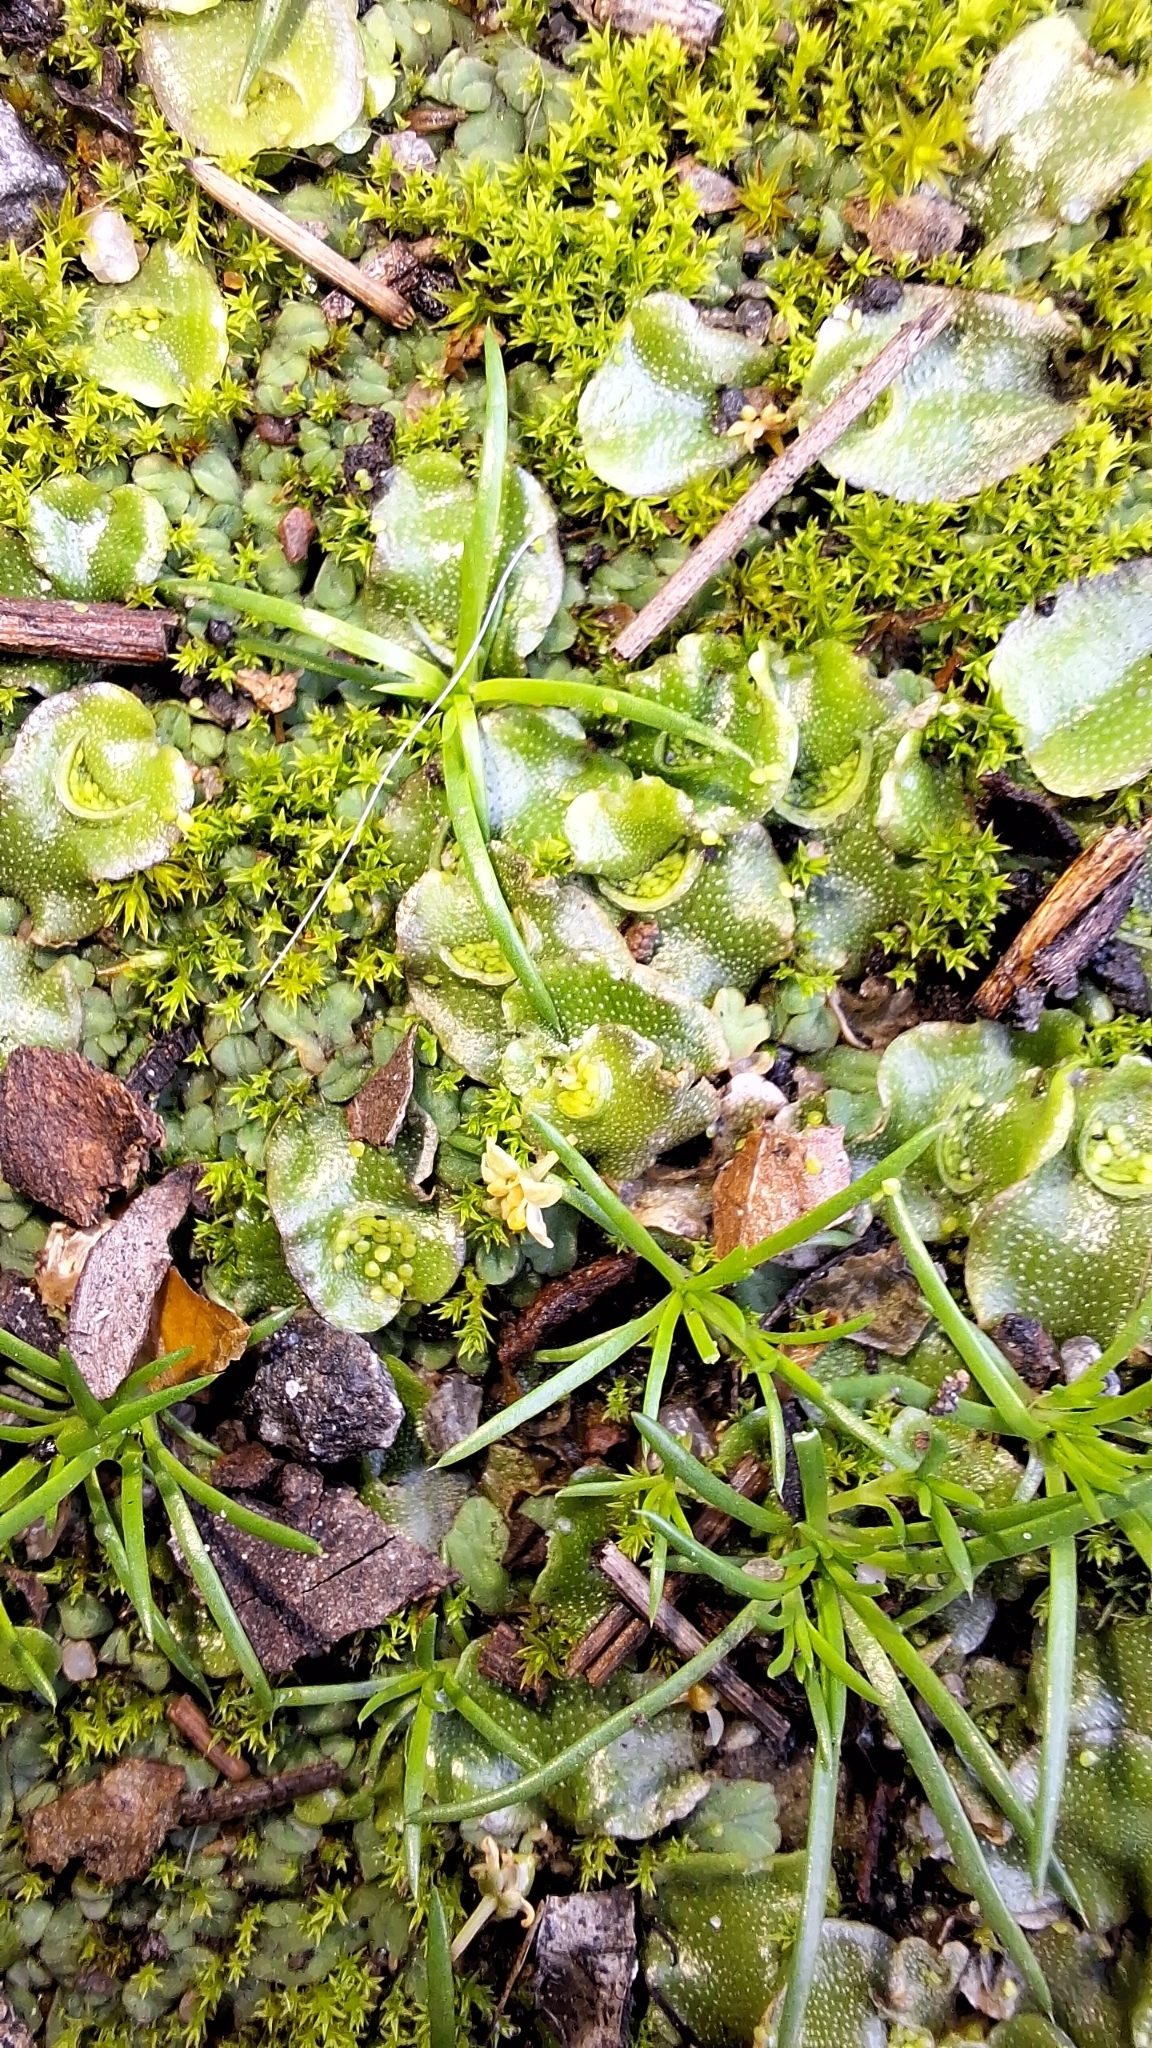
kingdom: Plantae
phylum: Marchantiophyta
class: Marchantiopsida
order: Lunulariales
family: Lunulariaceae
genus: Lunularia
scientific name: Lunularia cruciata
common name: Crescent-cup liverwort
